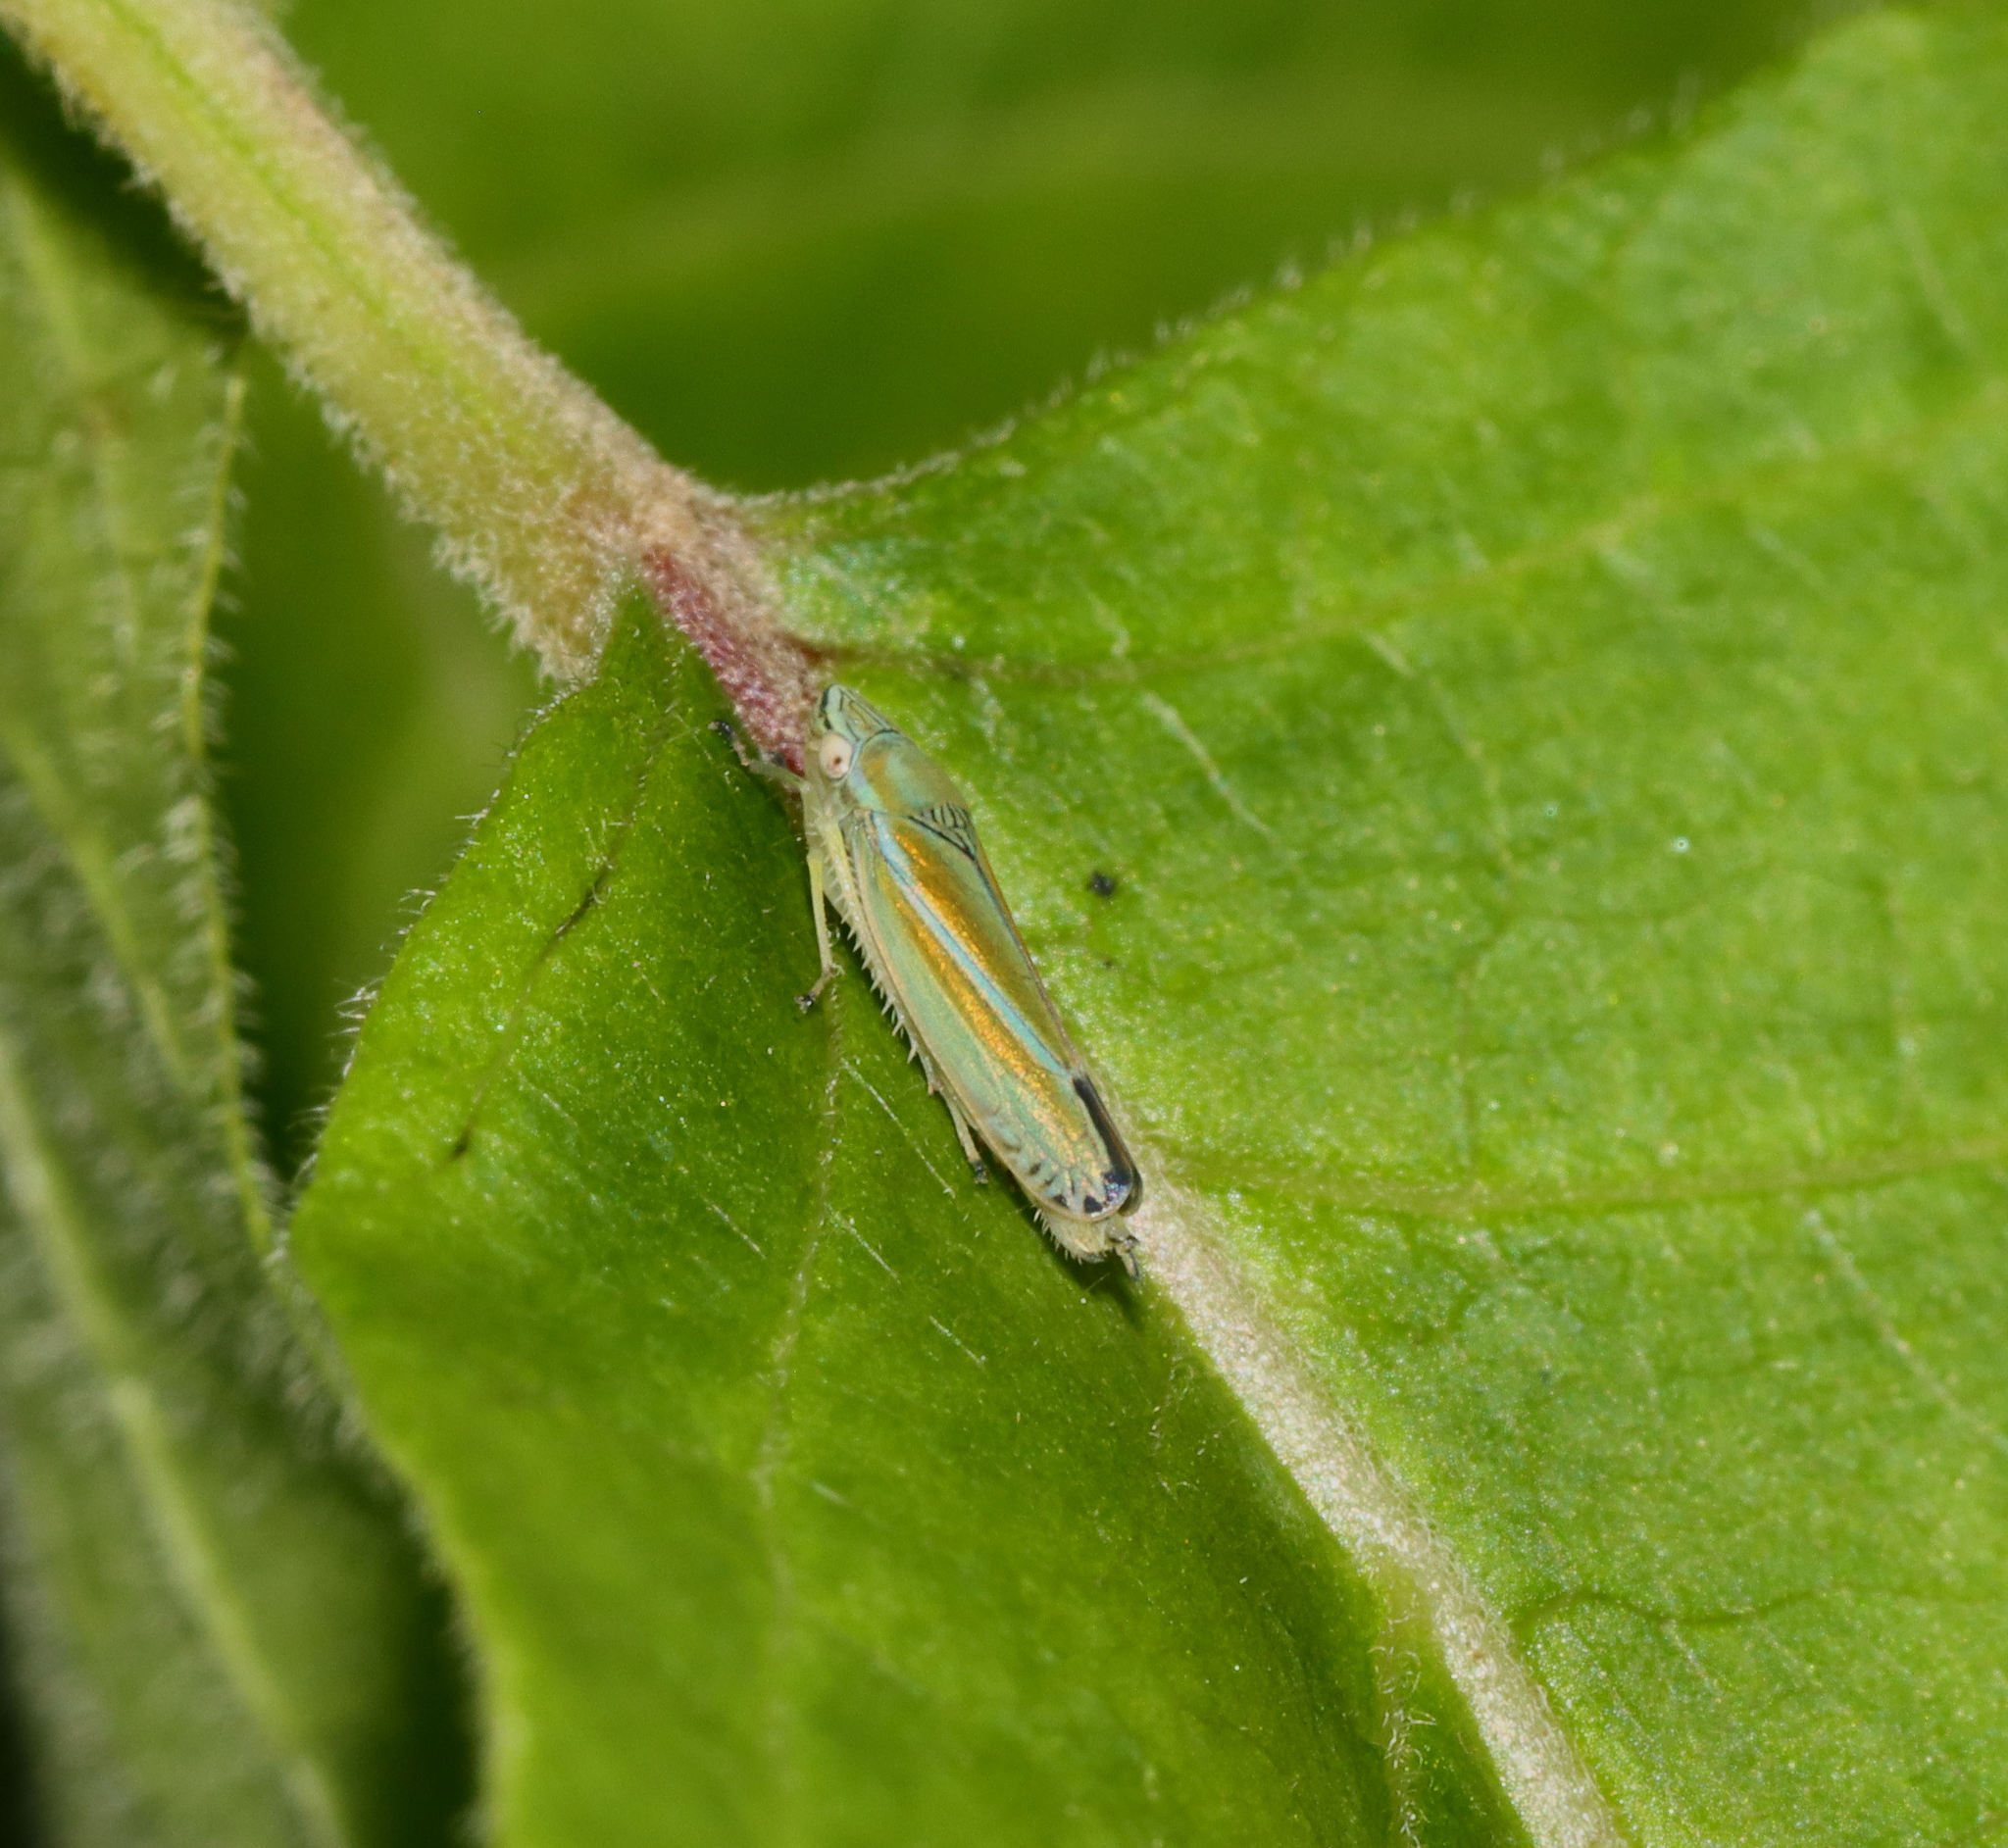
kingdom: Animalia
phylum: Arthropoda
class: Insecta
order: Hemiptera
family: Cicadellidae
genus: Graphocephala
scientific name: Graphocephala versuta
